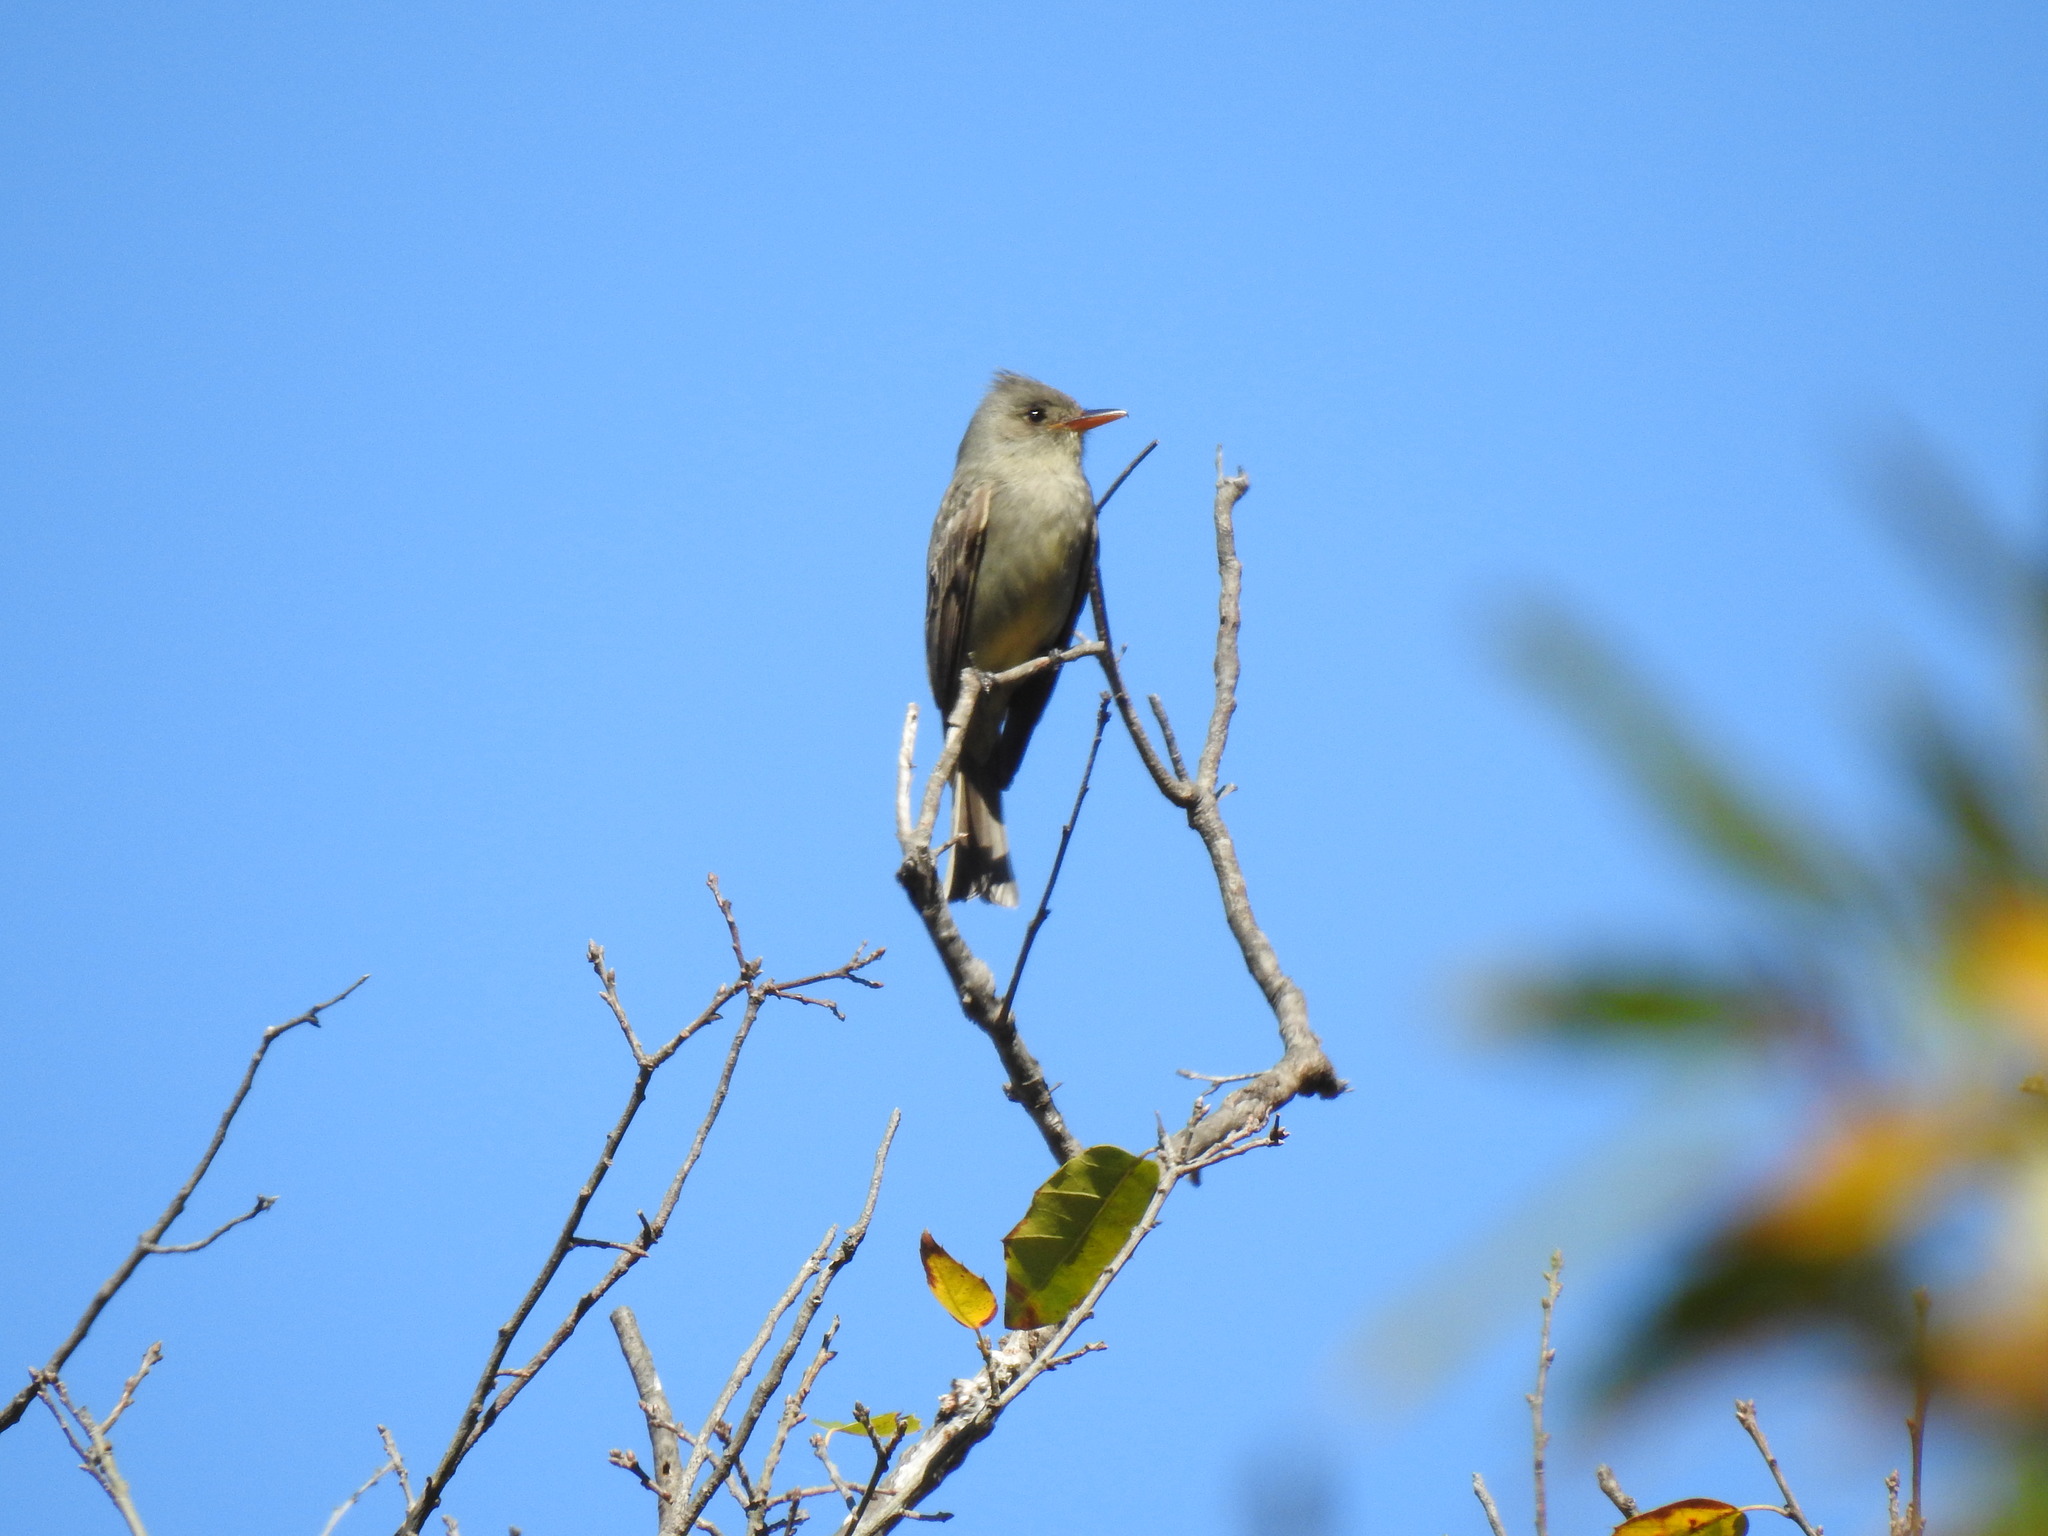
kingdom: Animalia
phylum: Chordata
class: Aves
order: Passeriformes
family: Tyrannidae
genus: Contopus
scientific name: Contopus pertinax
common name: Greater pewee
